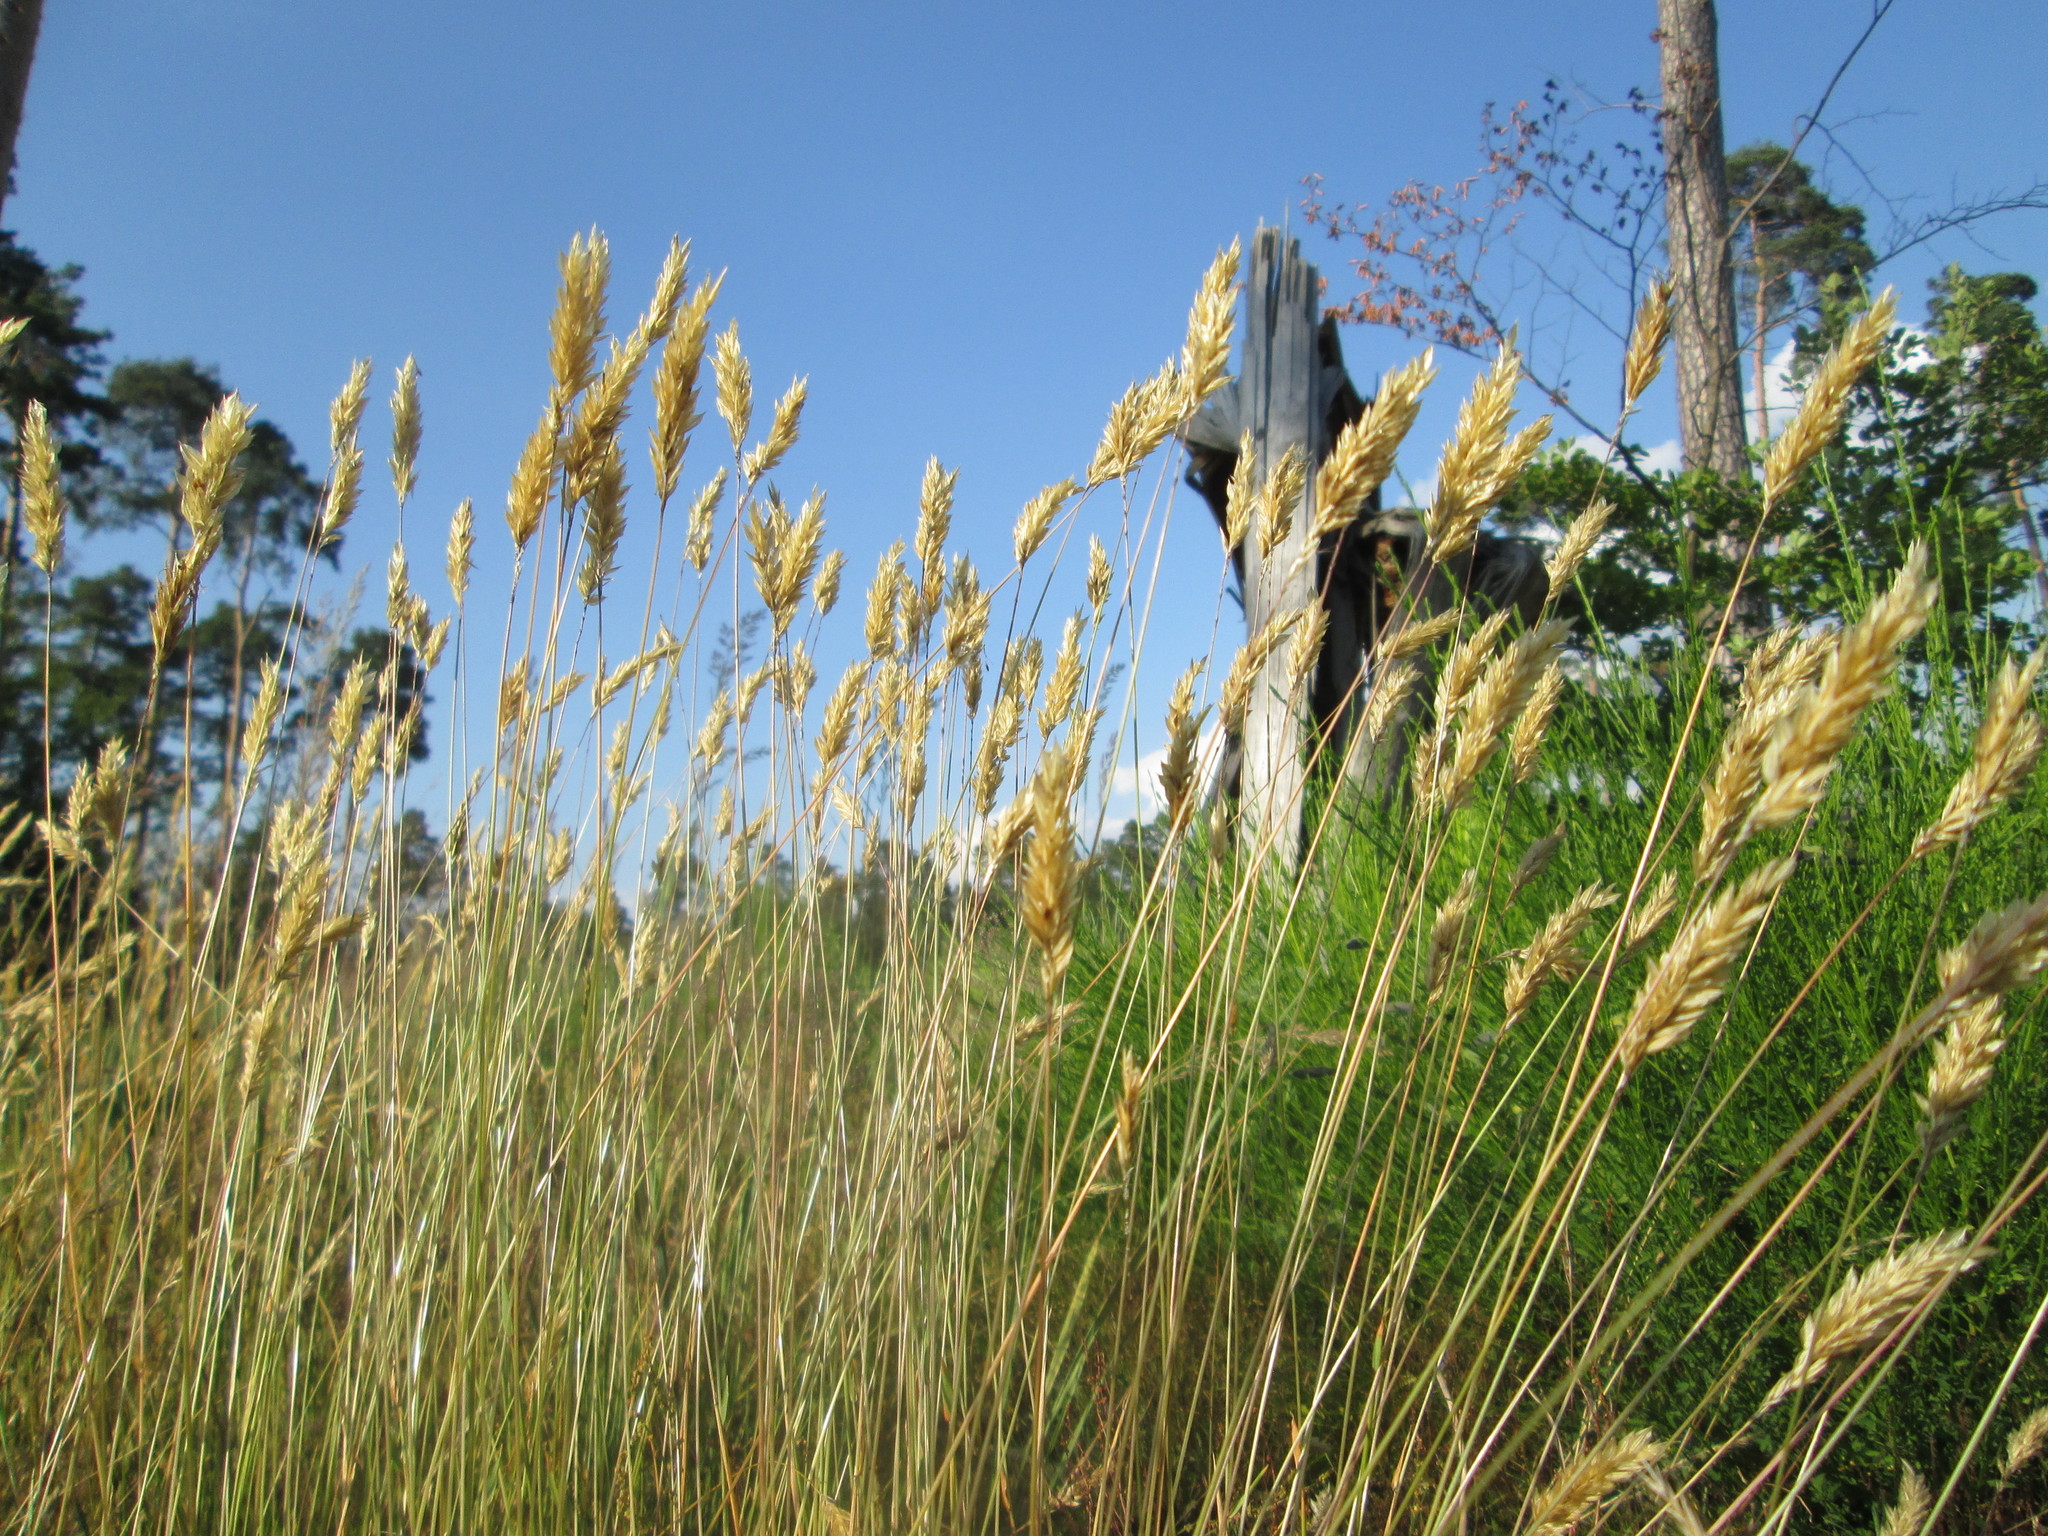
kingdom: Plantae
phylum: Tracheophyta
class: Liliopsida
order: Poales
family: Poaceae
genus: Anthoxanthum
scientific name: Anthoxanthum odoratum
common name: Sweet vernalgrass
